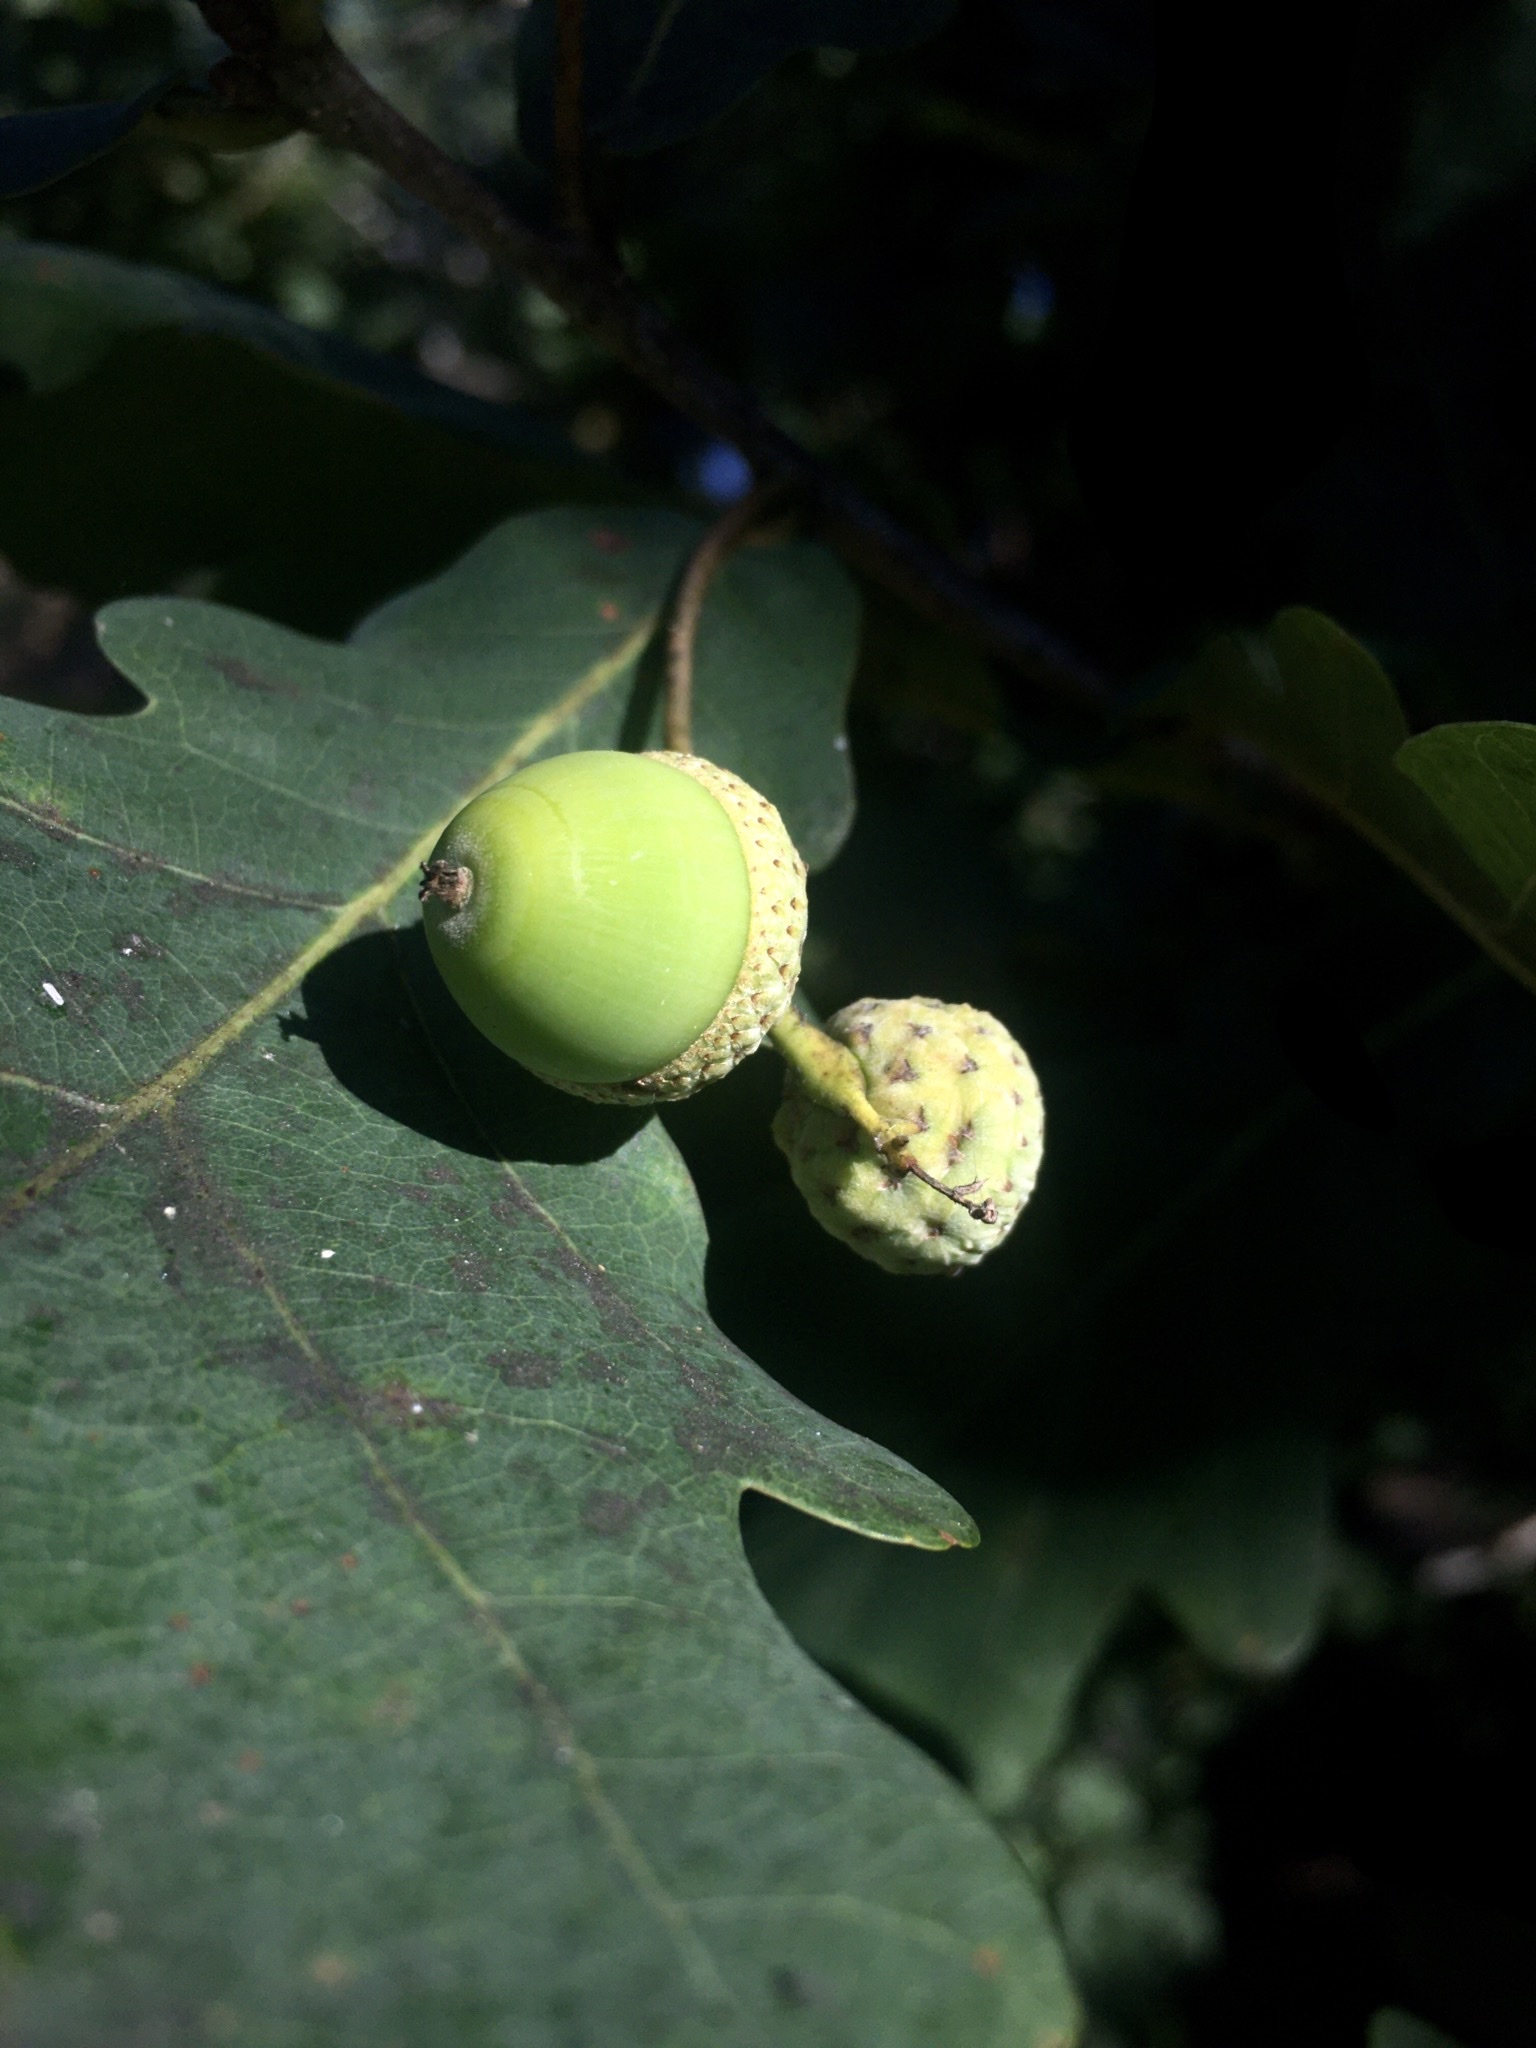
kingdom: Plantae
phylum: Tracheophyta
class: Magnoliopsida
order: Fagales
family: Fagaceae
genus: Quercus
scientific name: Quercus robur
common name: Pedunculate oak
